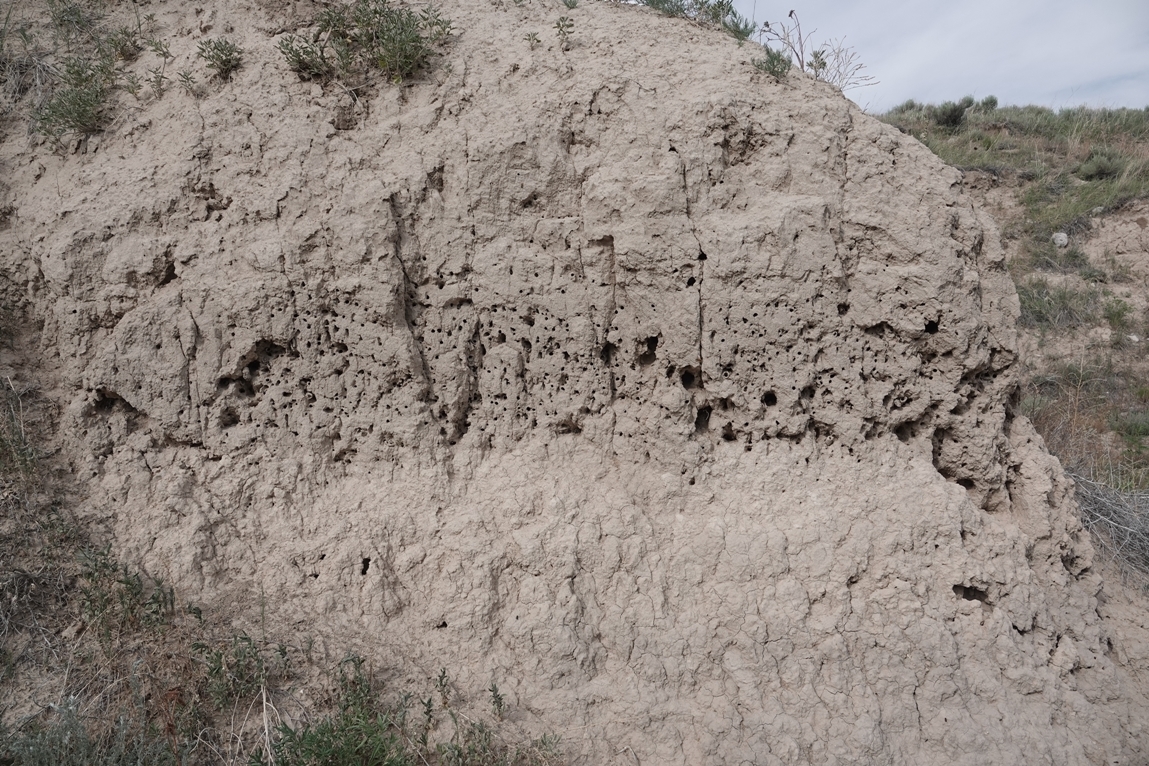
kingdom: Animalia
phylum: Arthropoda
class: Insecta
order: Hymenoptera
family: Apidae
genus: Anthophora
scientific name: Anthophora bomboides
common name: Bumble-bee-mimic digger bee
